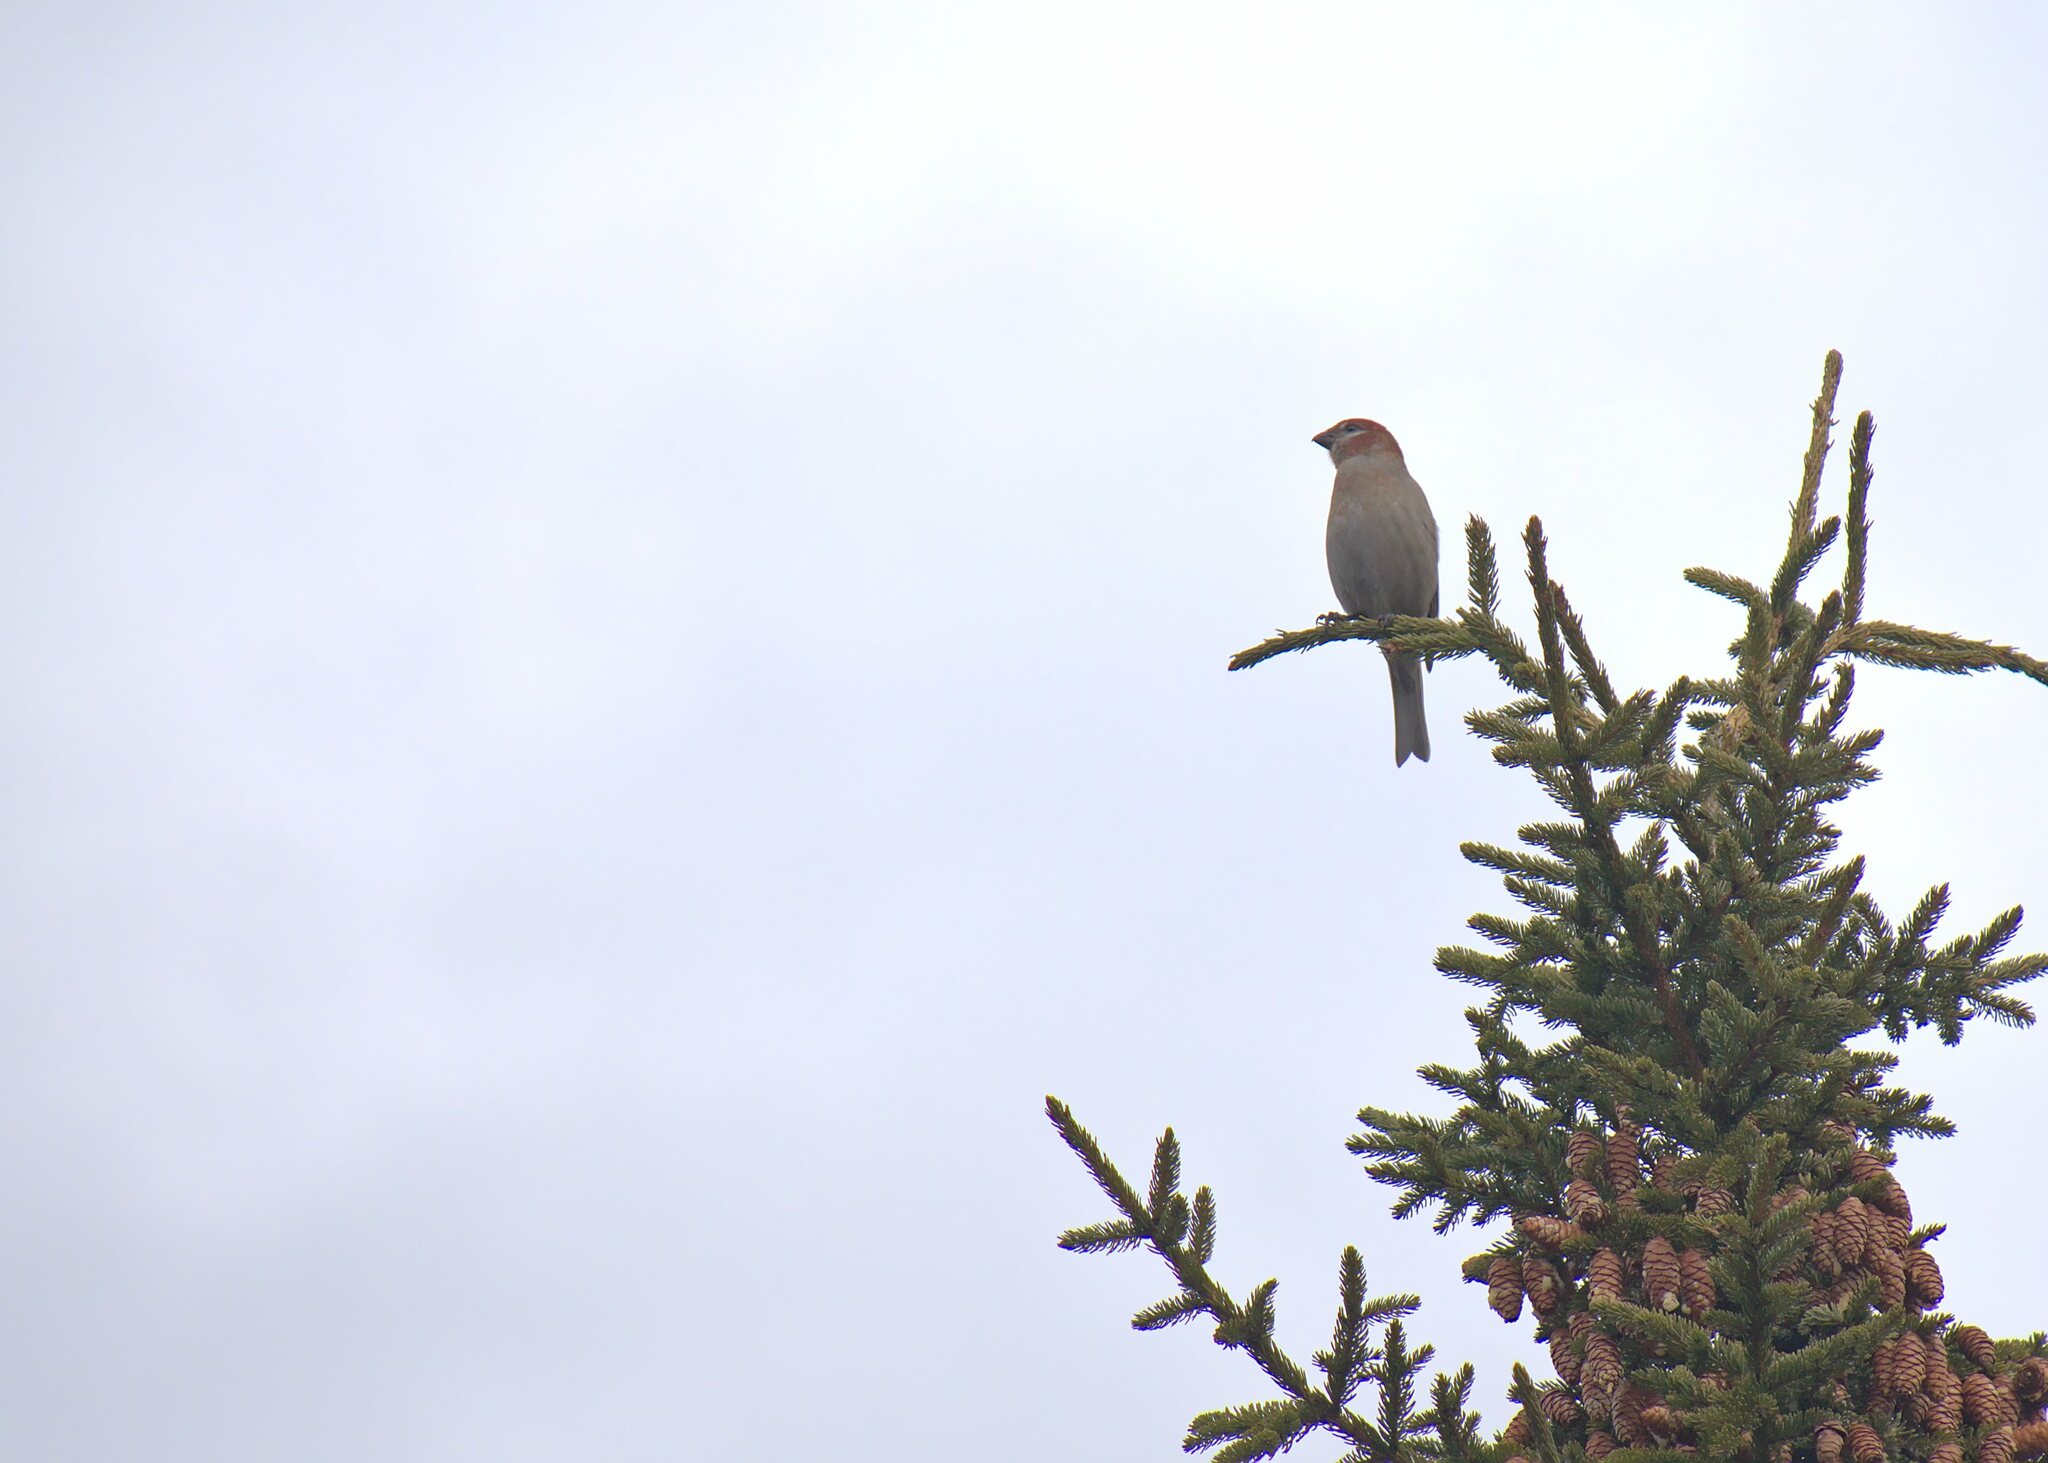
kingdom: Animalia
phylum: Chordata
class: Aves
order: Passeriformes
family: Fringillidae
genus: Pinicola
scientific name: Pinicola enucleator
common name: Pine grosbeak
